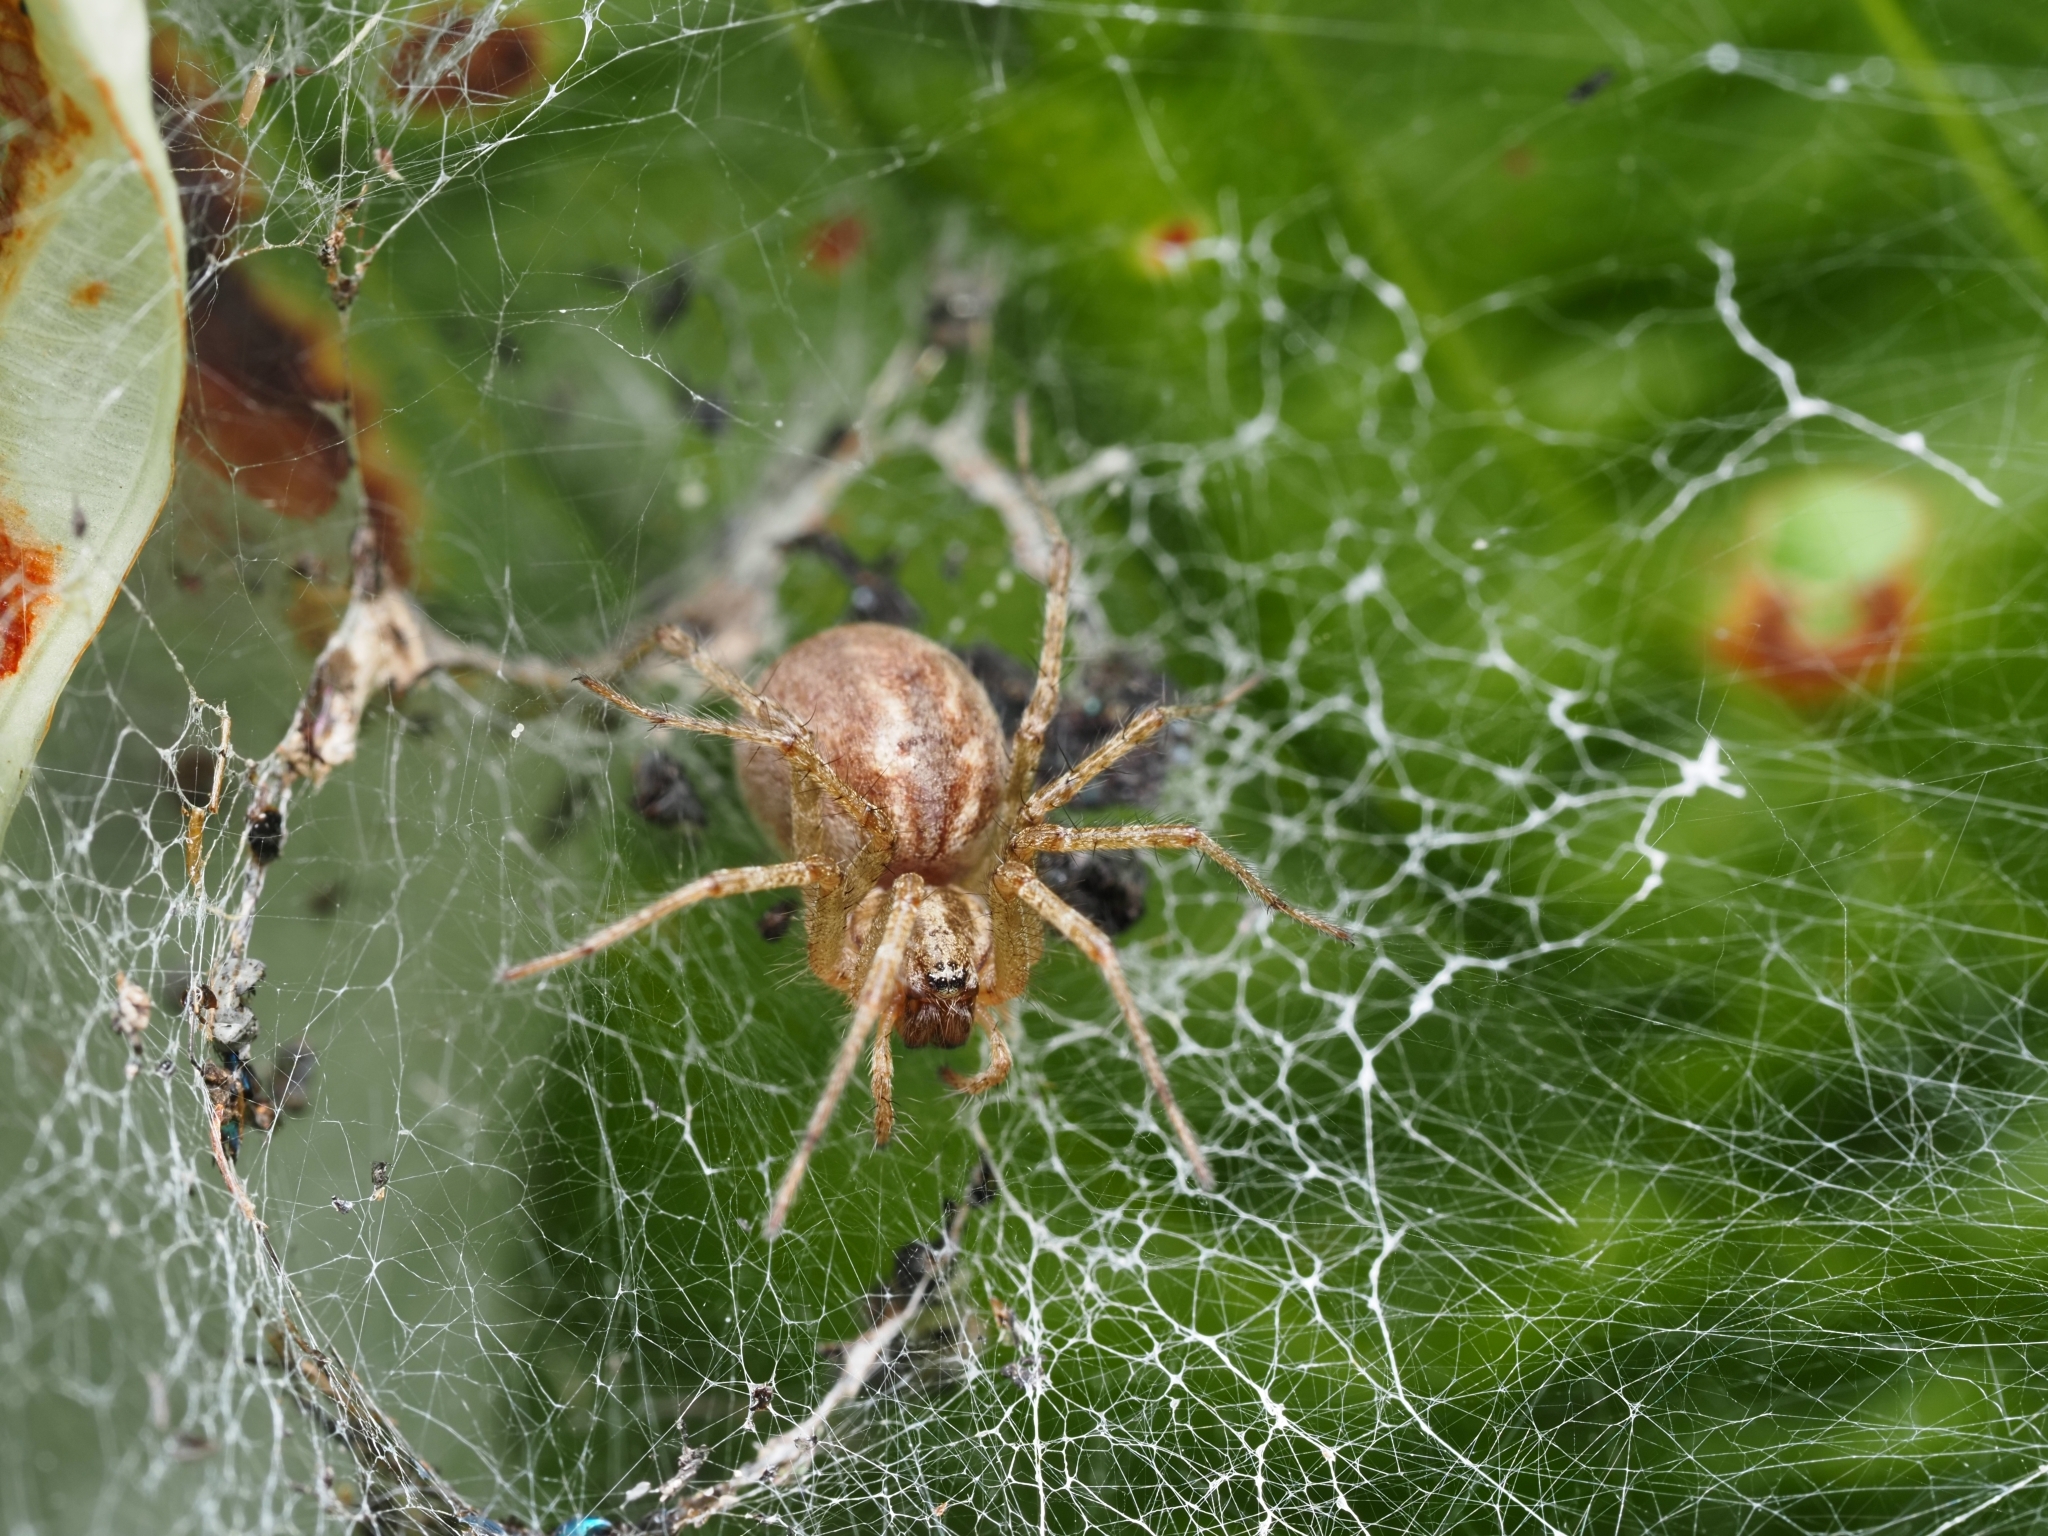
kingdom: Animalia
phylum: Arthropoda
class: Arachnida
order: Araneae
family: Agelenidae
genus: Allagelena
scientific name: Allagelena gracilens
